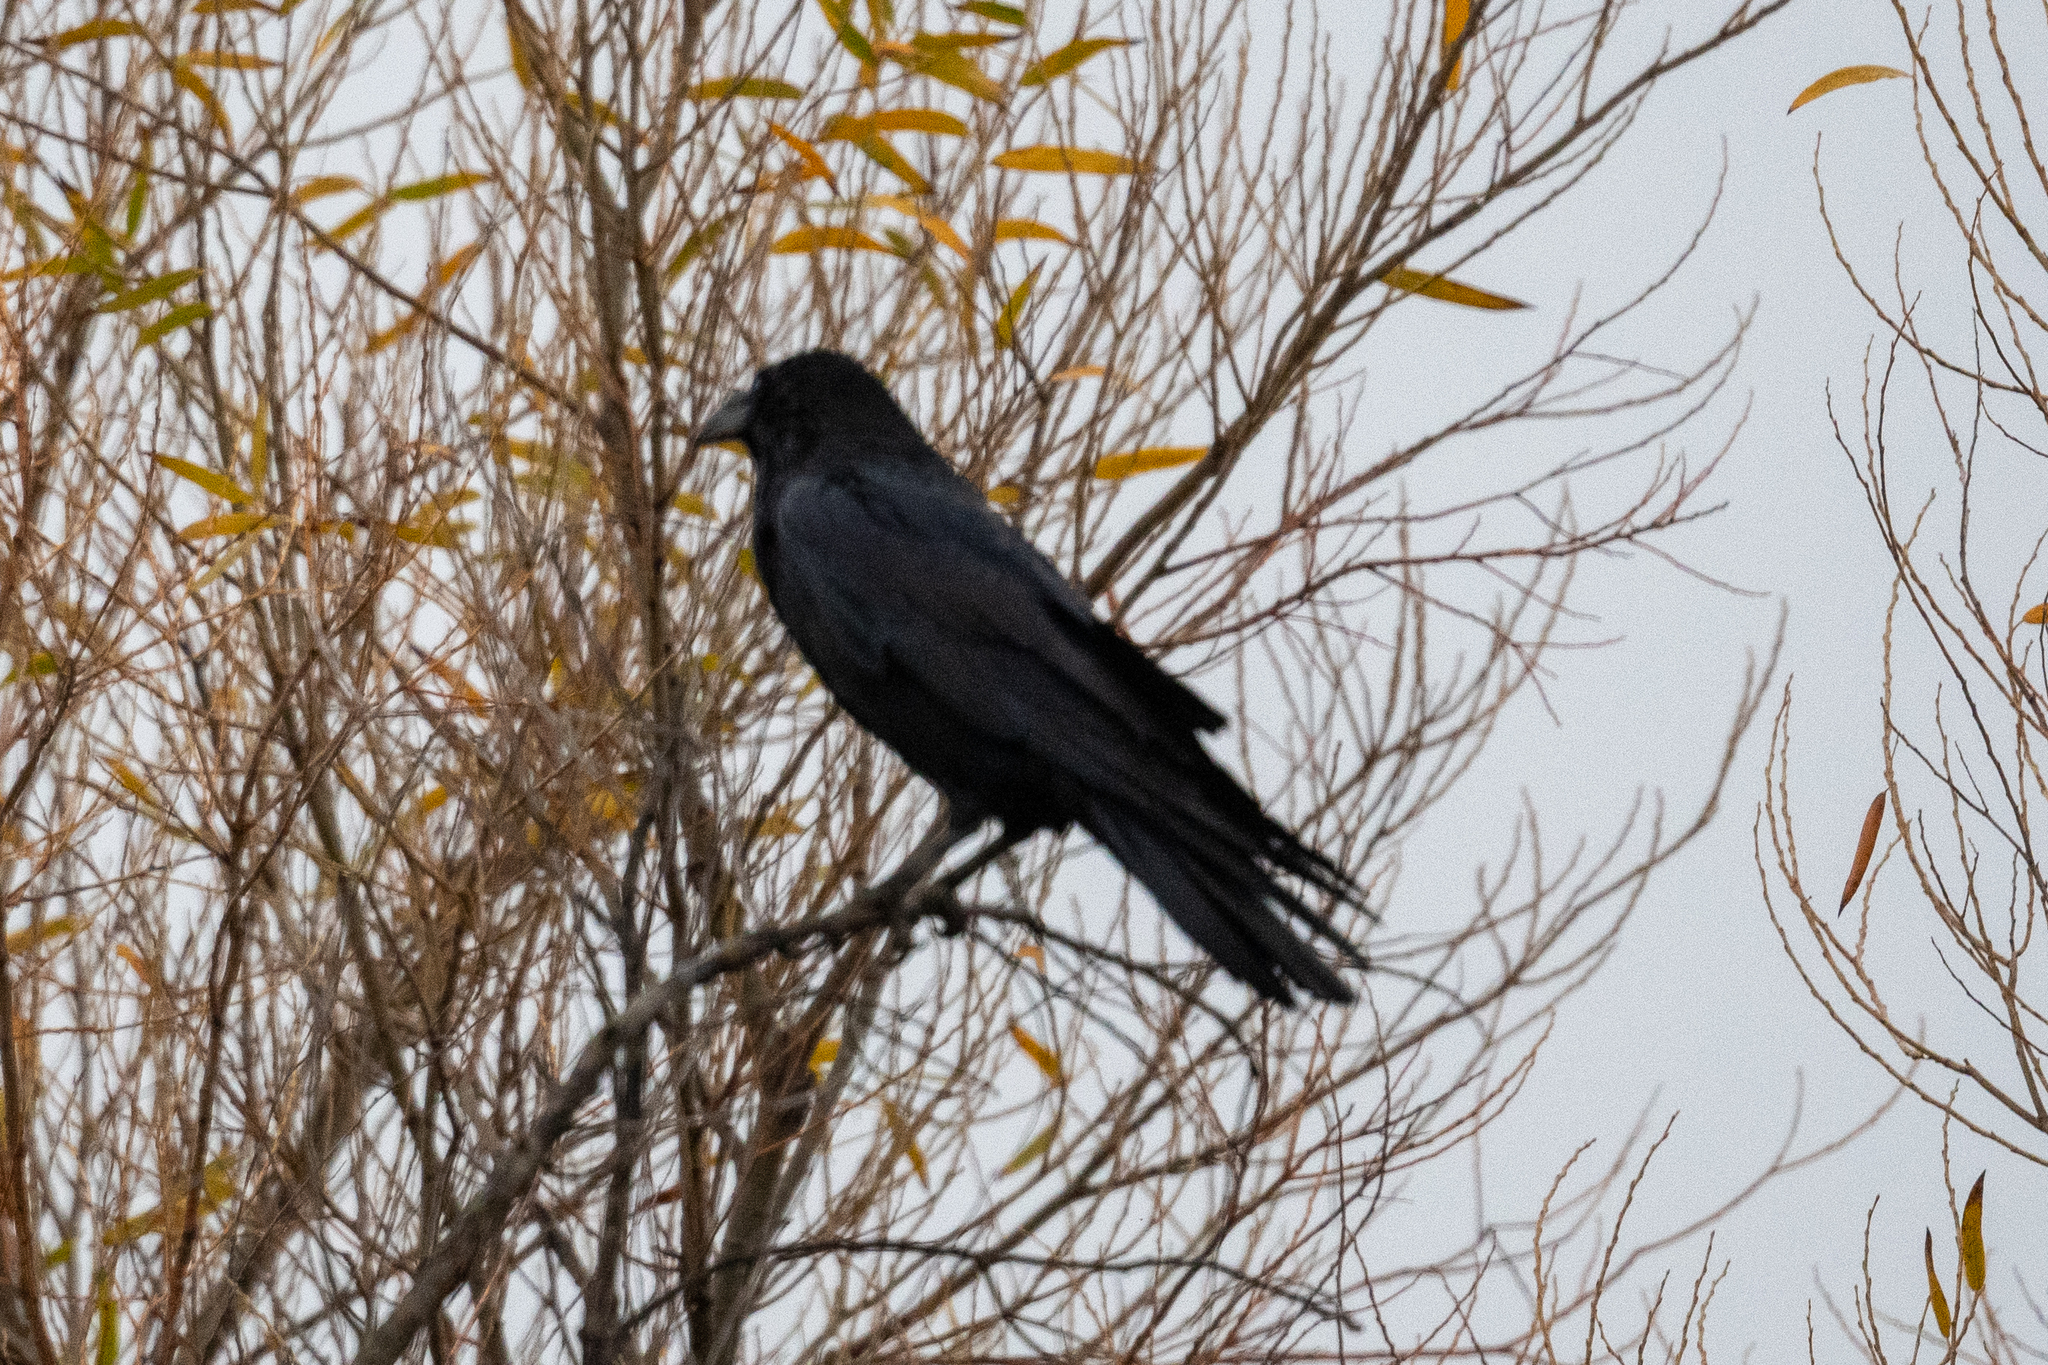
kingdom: Animalia
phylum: Chordata
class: Aves
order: Passeriformes
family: Corvidae
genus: Corvus
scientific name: Corvus corax
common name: Common raven
